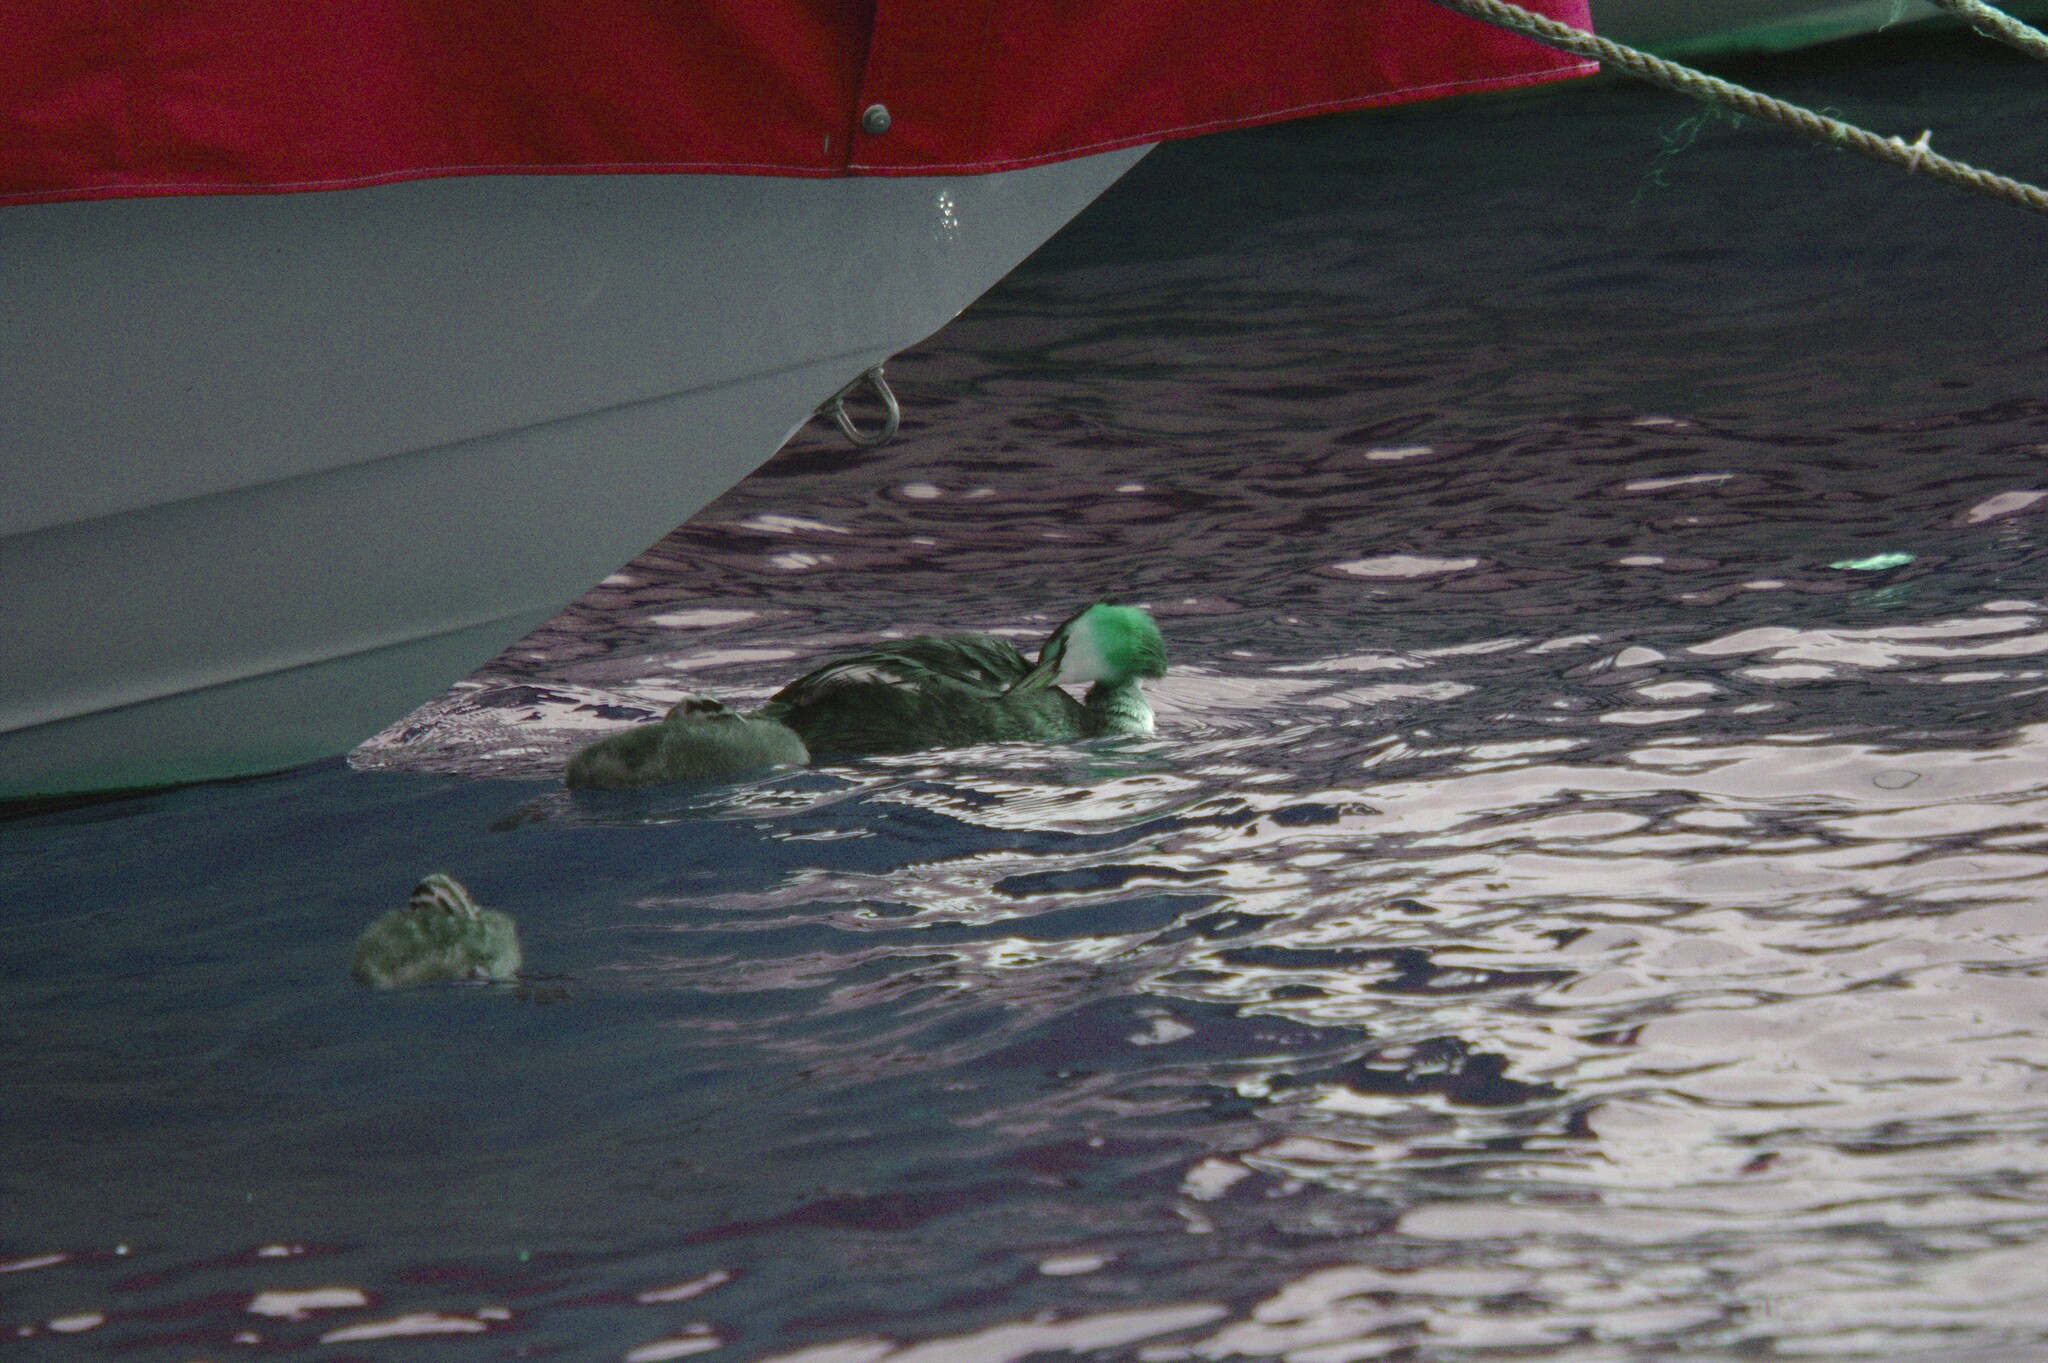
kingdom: Animalia
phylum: Chordata
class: Aves
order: Podicipediformes
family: Podicipedidae
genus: Podiceps
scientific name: Podiceps cristatus
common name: Great crested grebe
